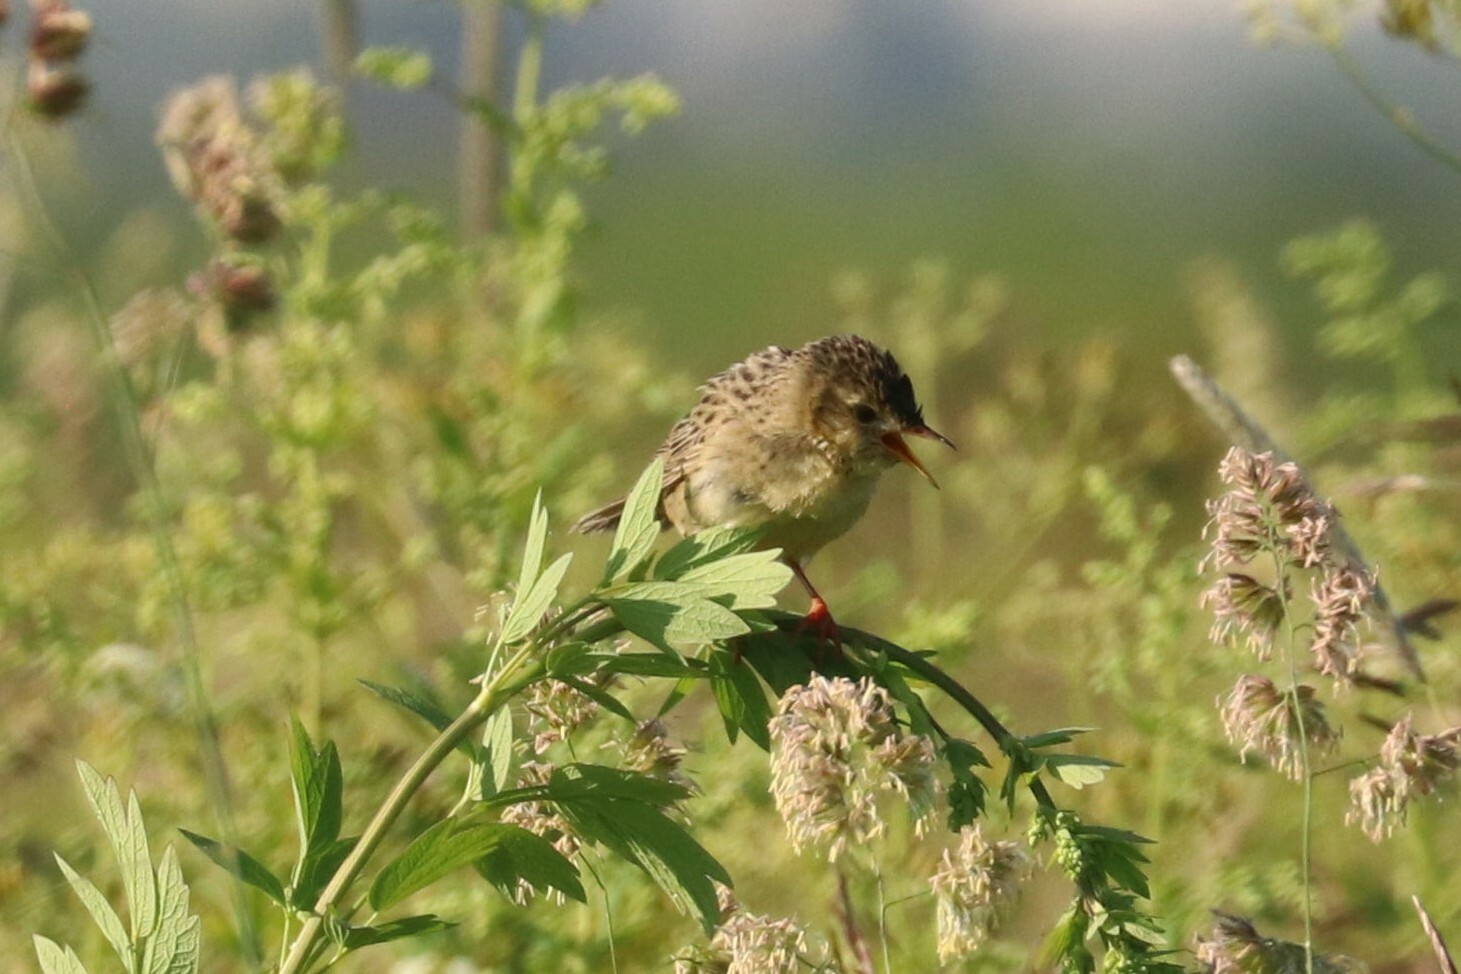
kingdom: Animalia
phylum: Chordata
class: Aves
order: Passeriformes
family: Locustellidae
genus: Locustella
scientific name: Locustella naevia
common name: Common grasshopper warbler
